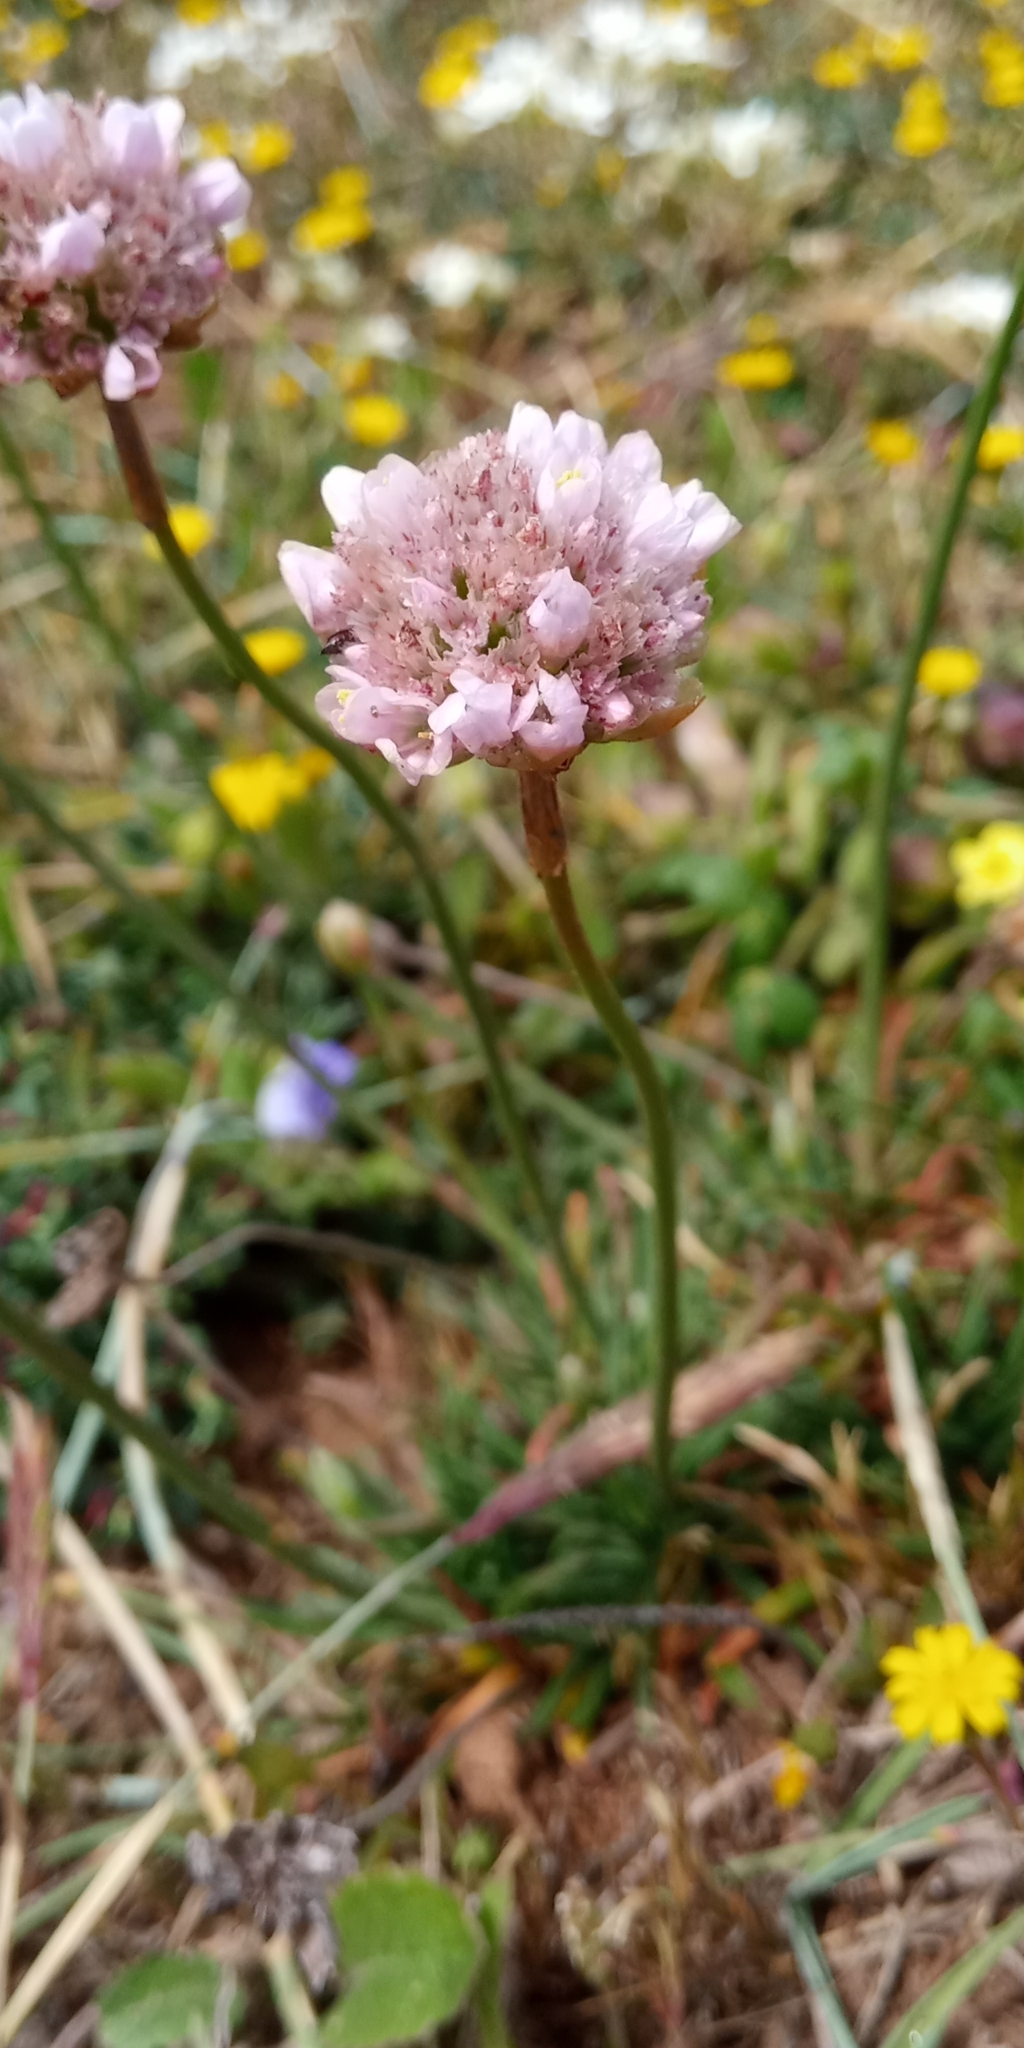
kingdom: Plantae
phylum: Tracheophyta
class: Magnoliopsida
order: Caryophyllales
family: Plumbaginaceae
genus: Armeria
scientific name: Armeria curvifolia
